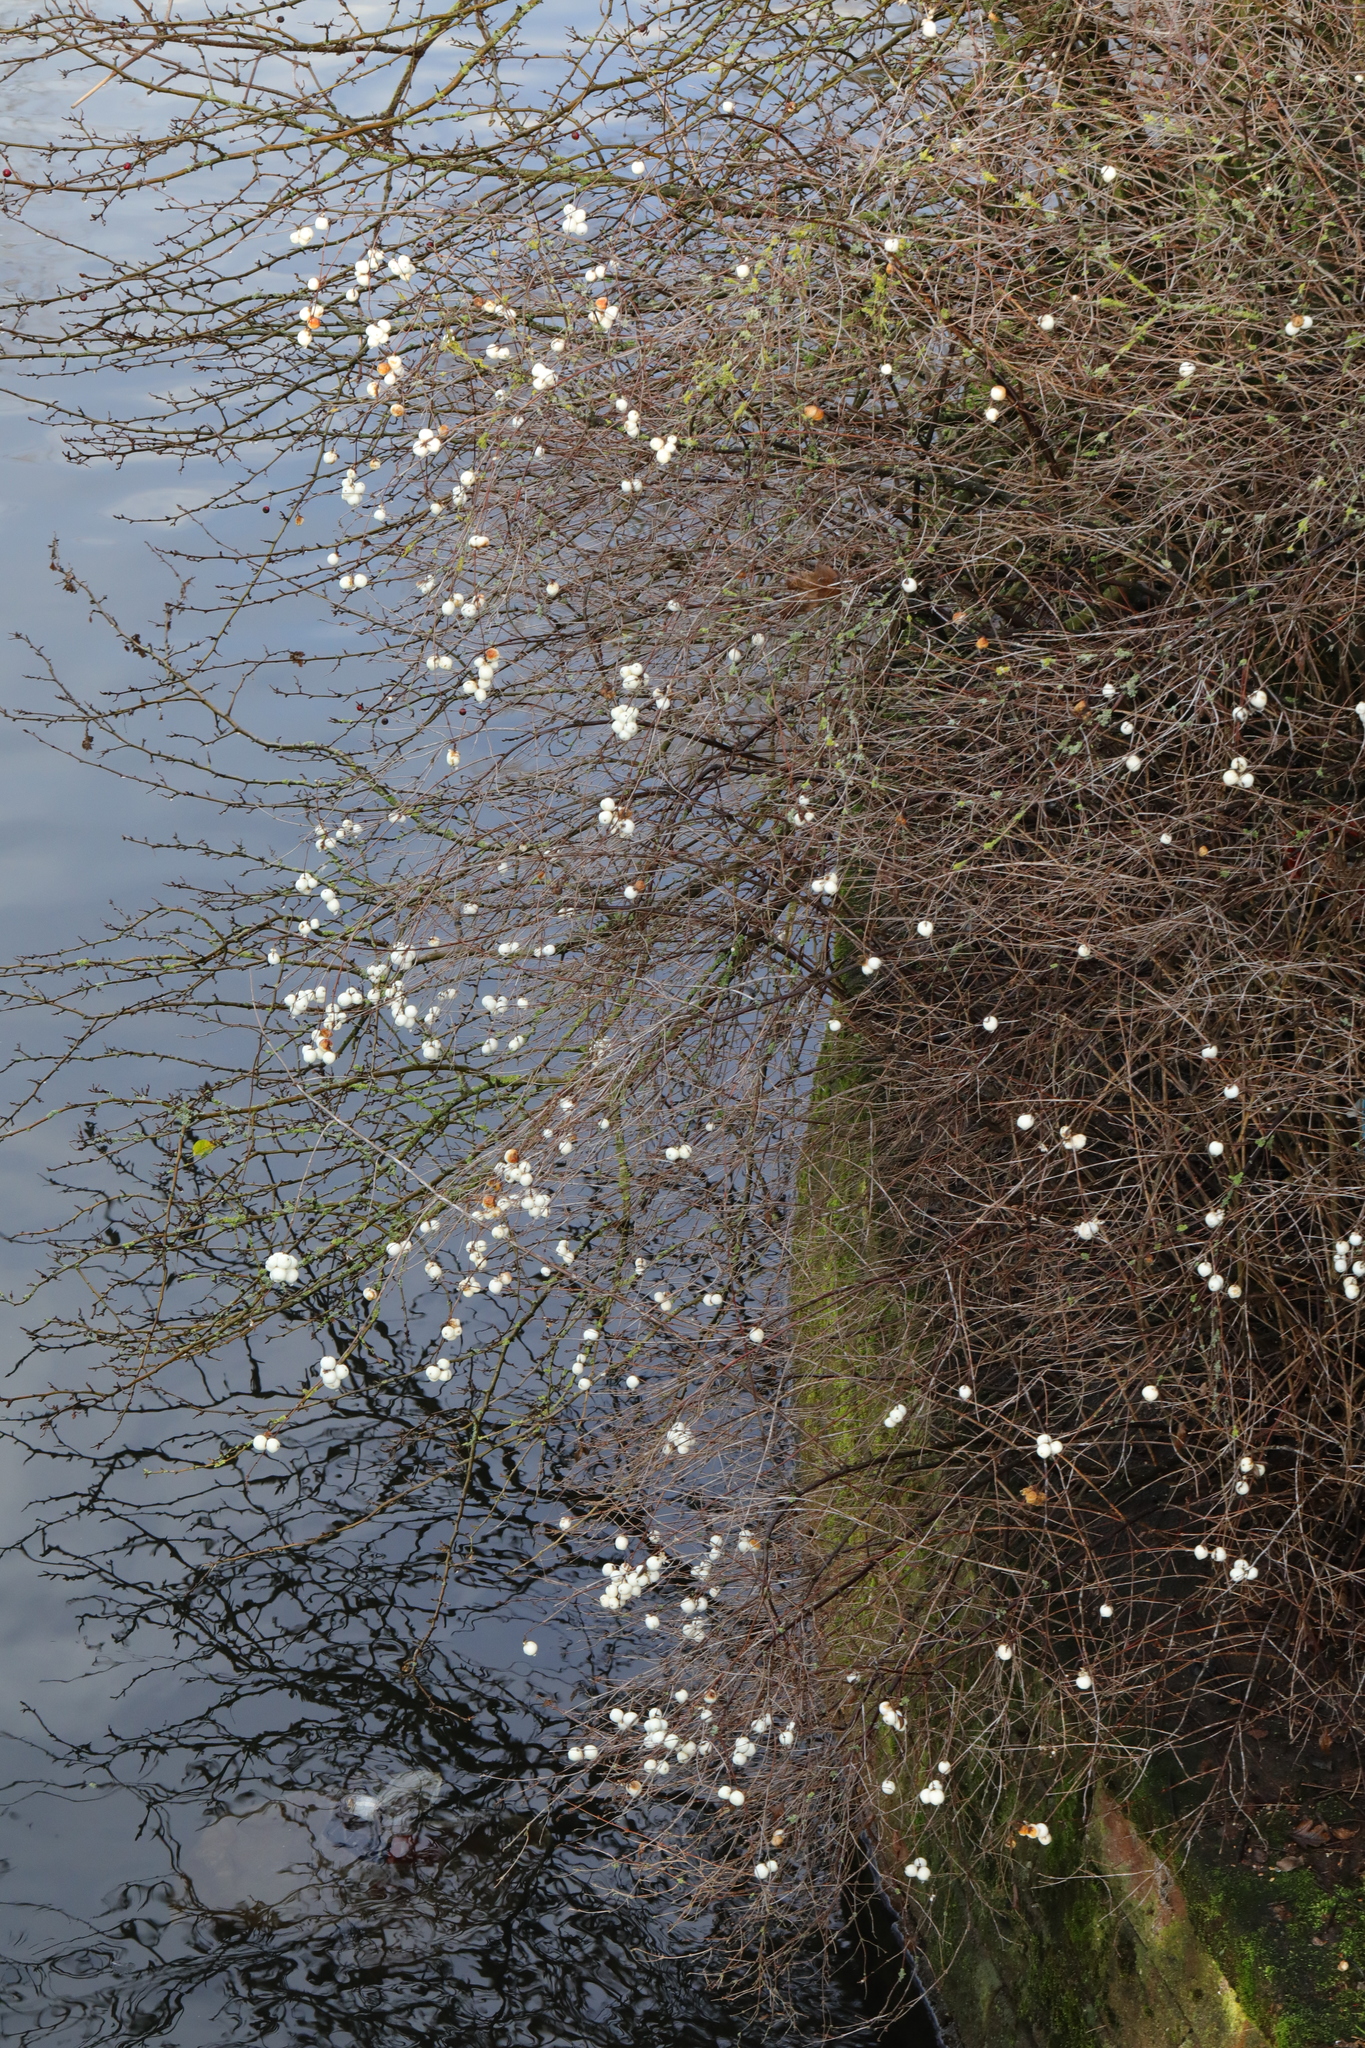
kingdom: Plantae
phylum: Tracheophyta
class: Magnoliopsida
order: Dipsacales
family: Caprifoliaceae
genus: Symphoricarpos
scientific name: Symphoricarpos albus
